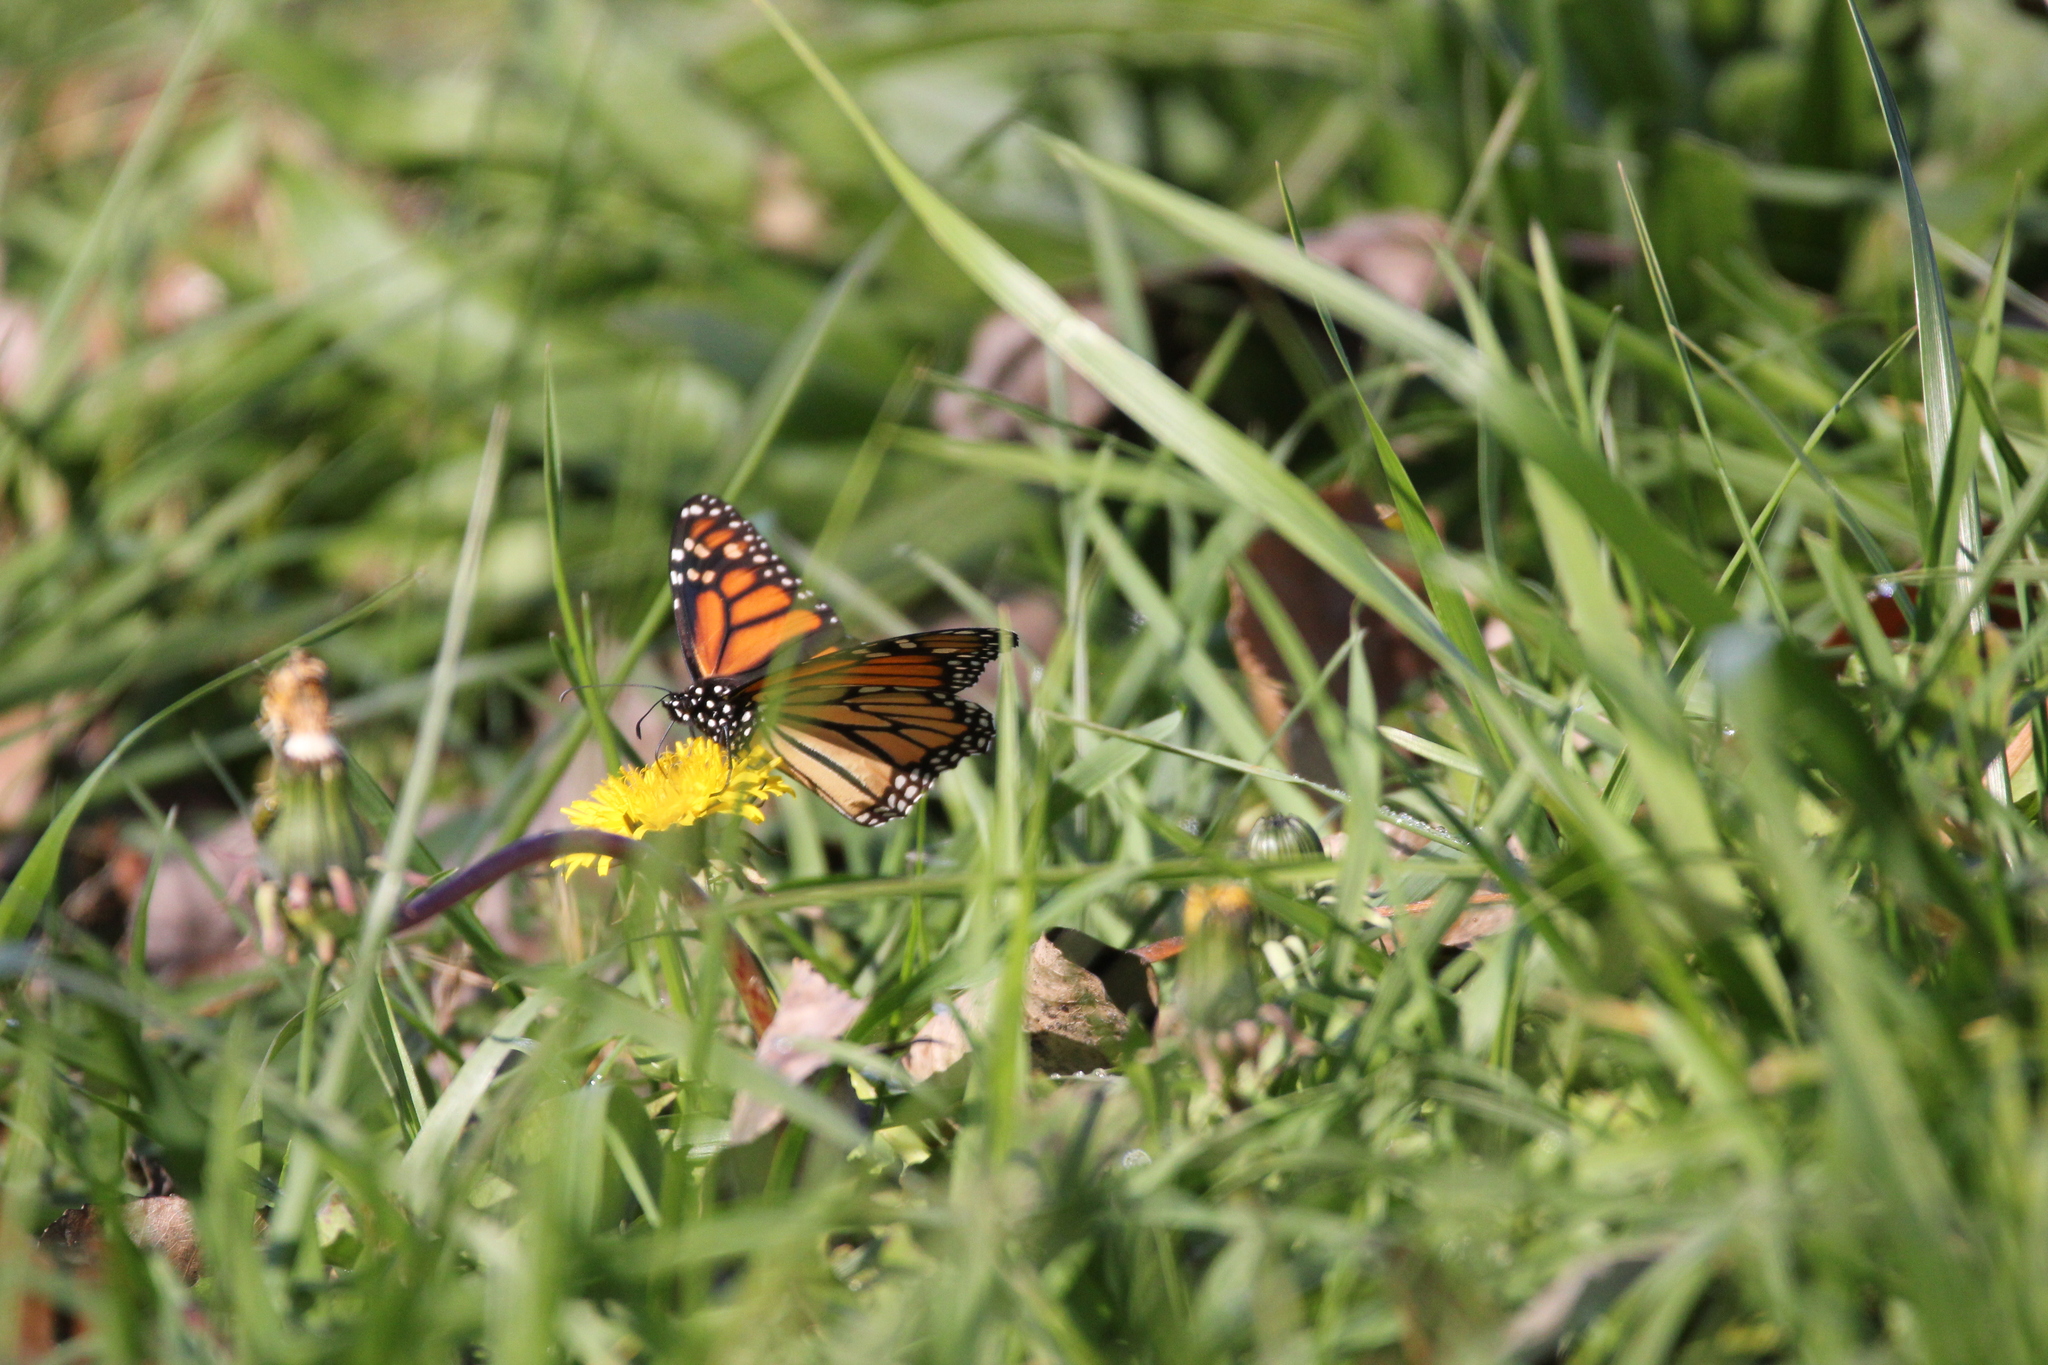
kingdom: Animalia
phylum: Arthropoda
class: Insecta
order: Lepidoptera
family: Nymphalidae
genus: Danaus
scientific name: Danaus plexippus
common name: Monarch
